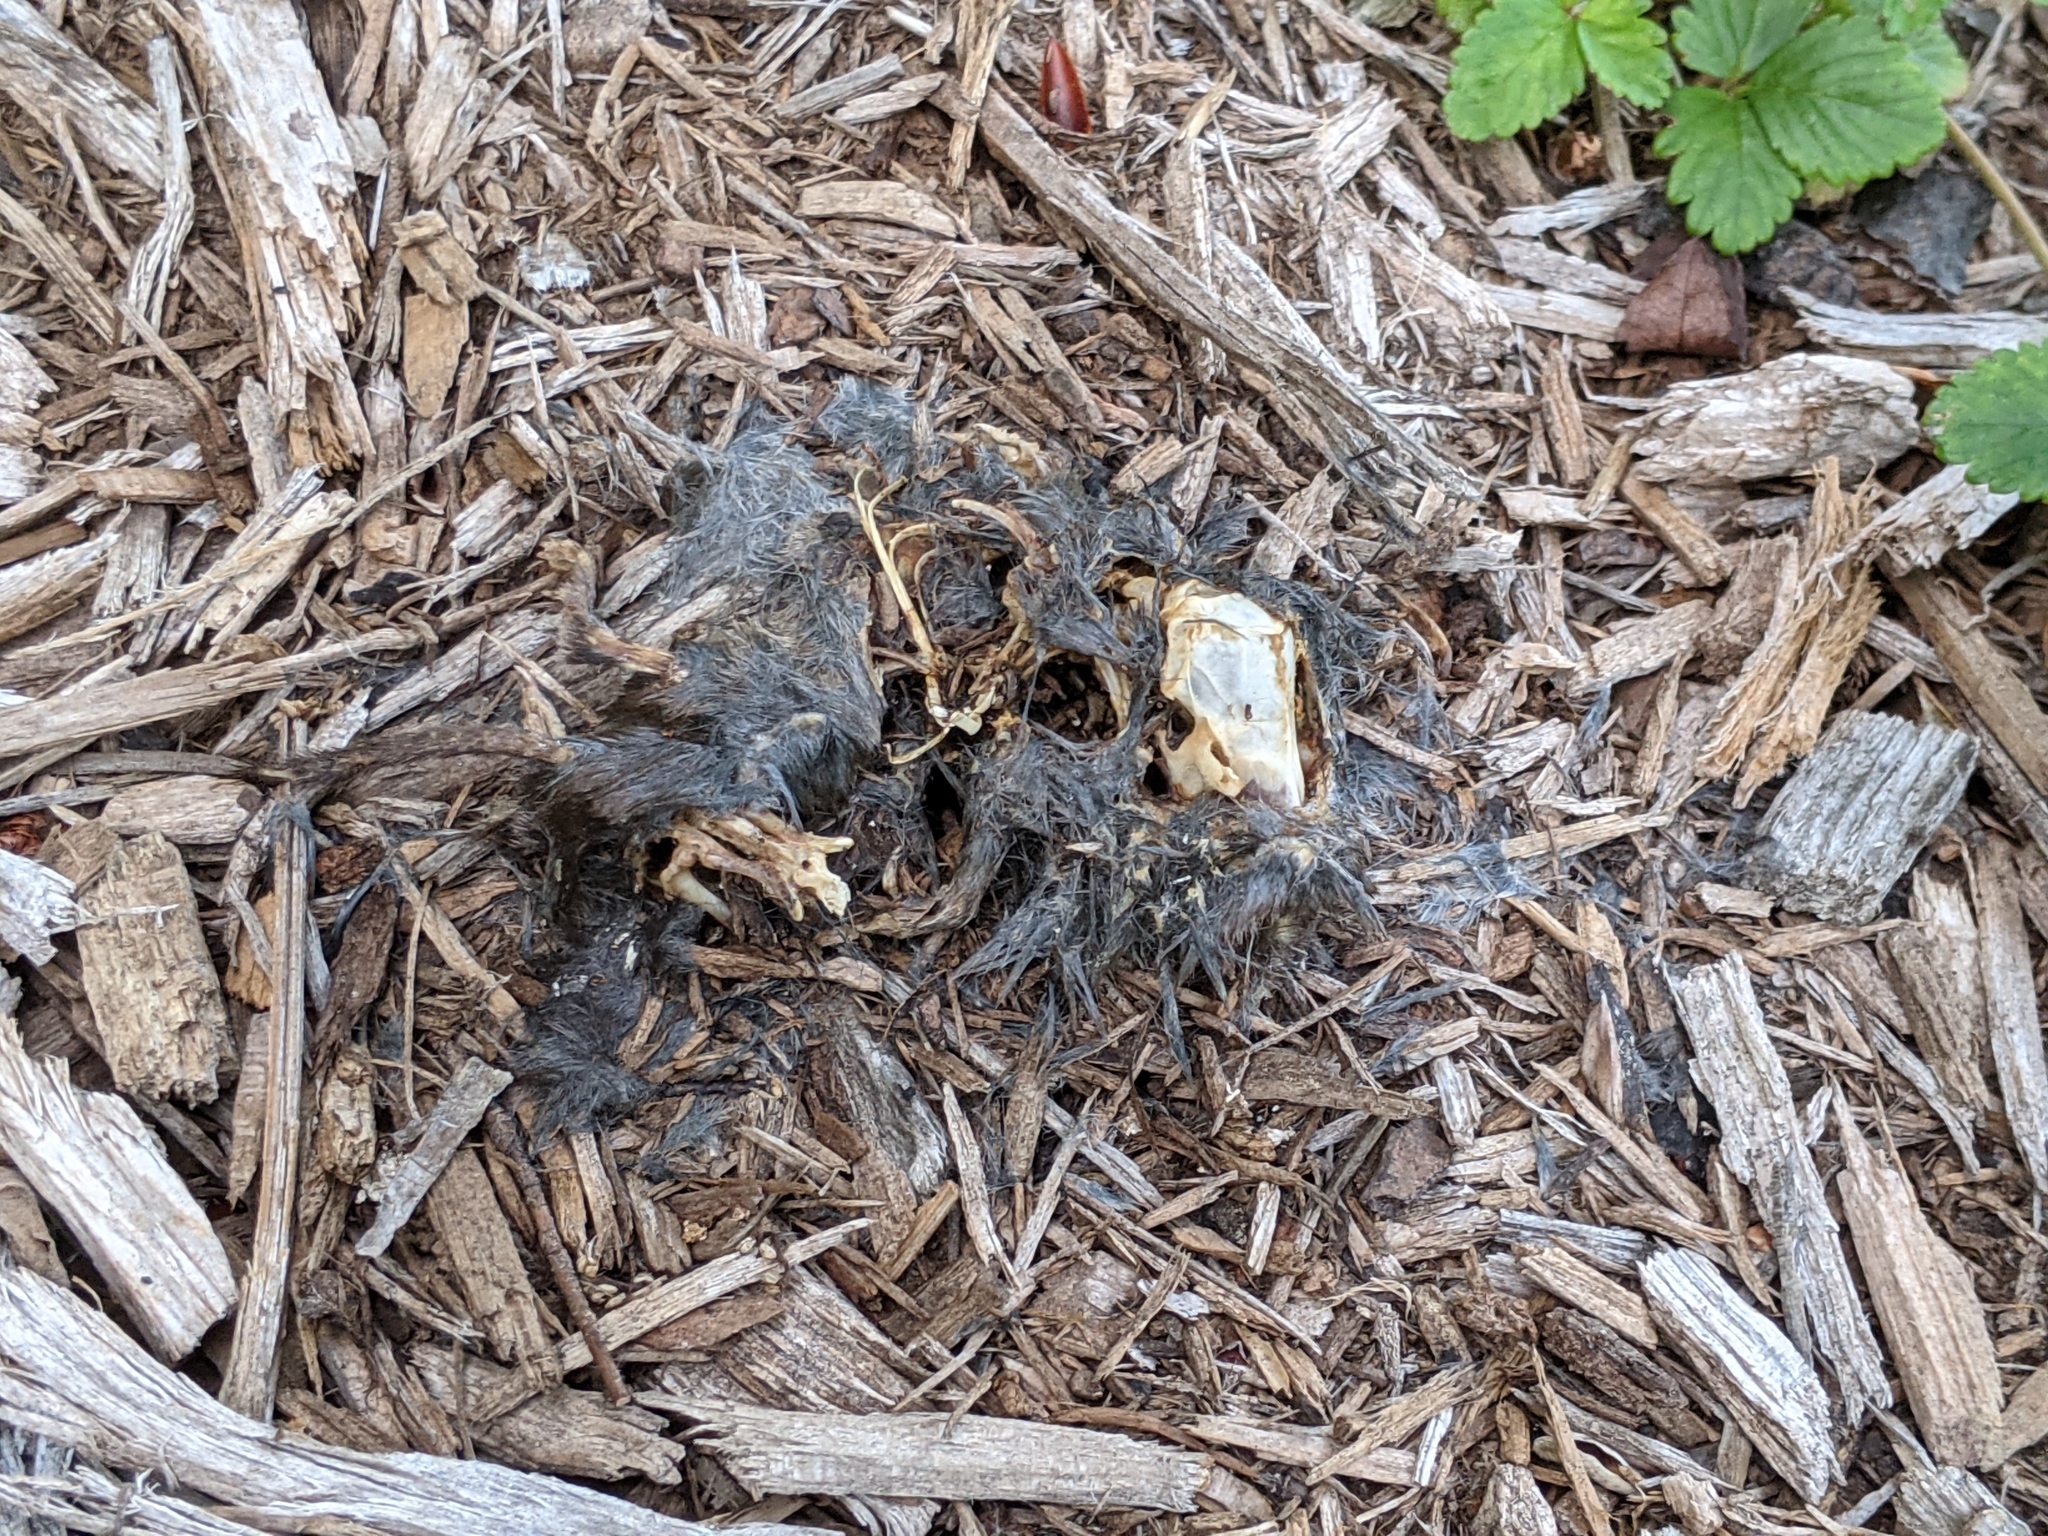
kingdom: Animalia
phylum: Chordata
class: Mammalia
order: Soricomorpha
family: Soricidae
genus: Blarina
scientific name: Blarina brevicauda
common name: Northern short-tailed shrew
